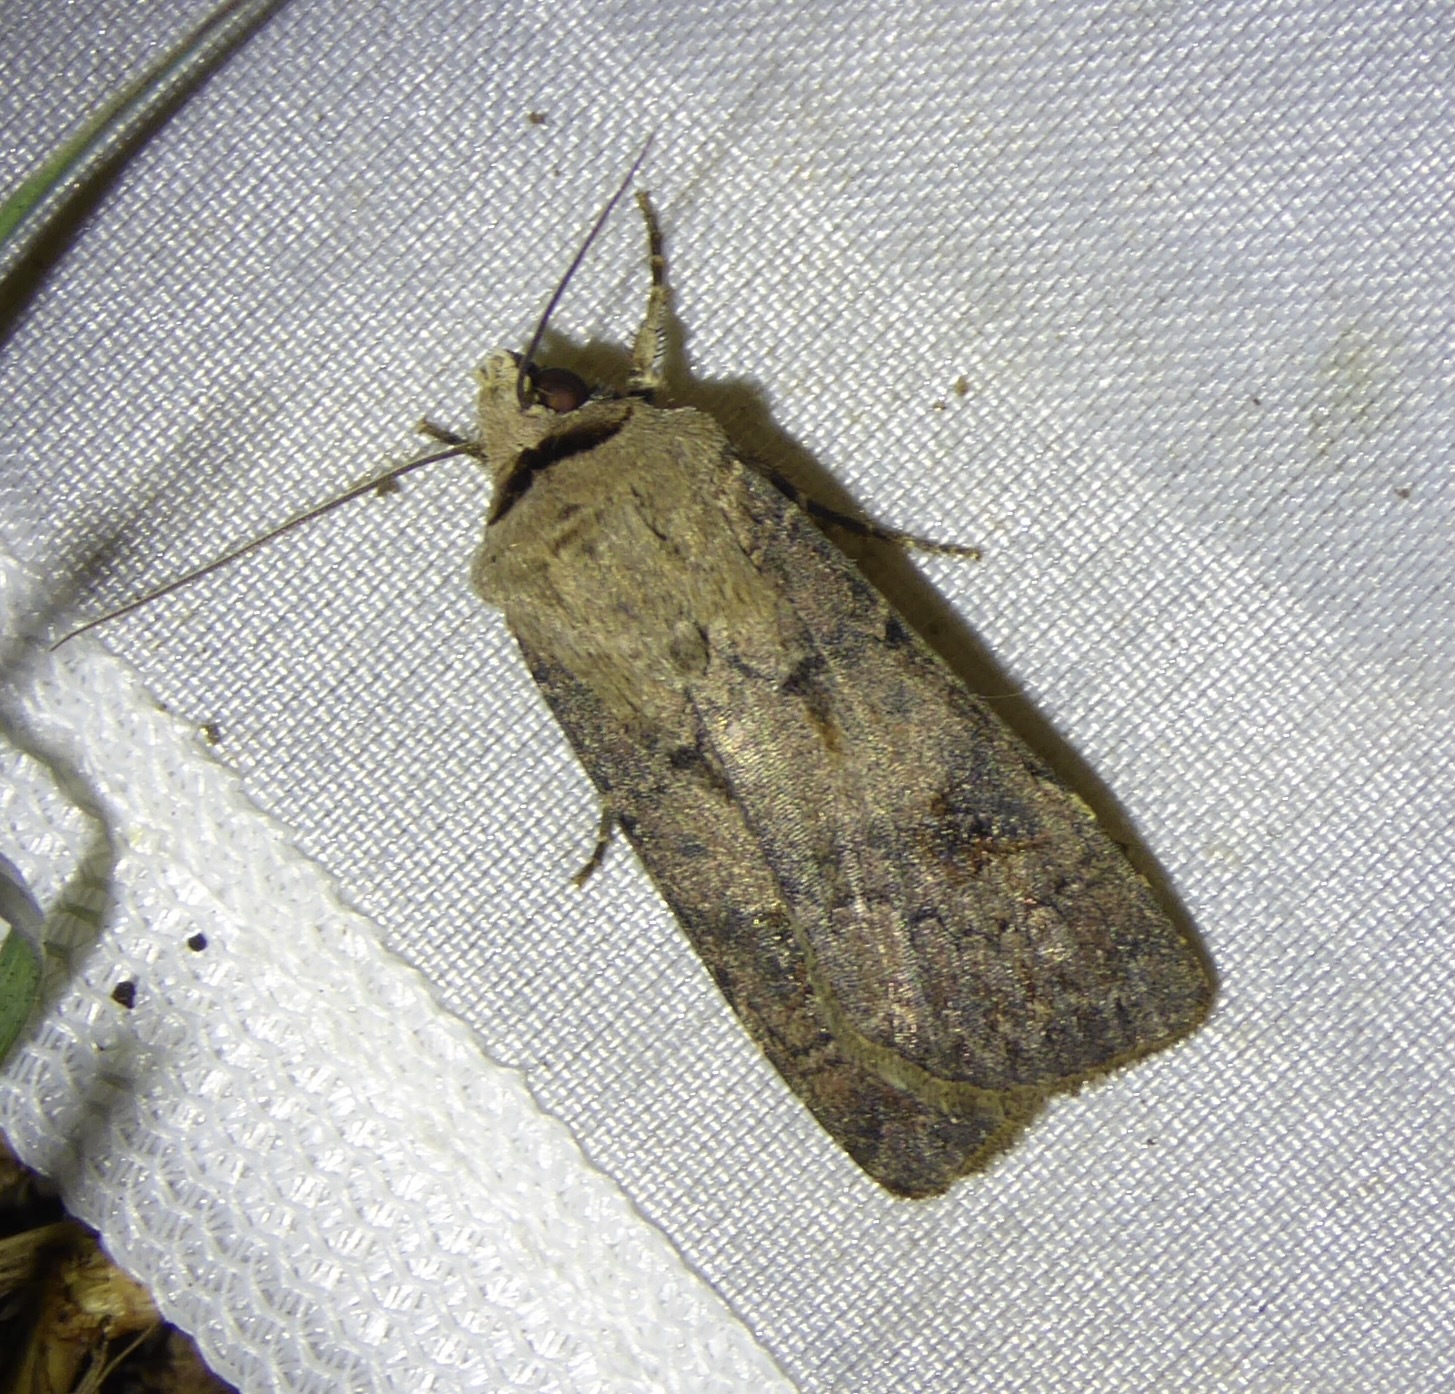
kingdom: Animalia
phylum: Arthropoda
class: Insecta
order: Lepidoptera
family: Noctuidae
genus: Agrotis
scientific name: Agrotis exclamationis
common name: Heart and dart
